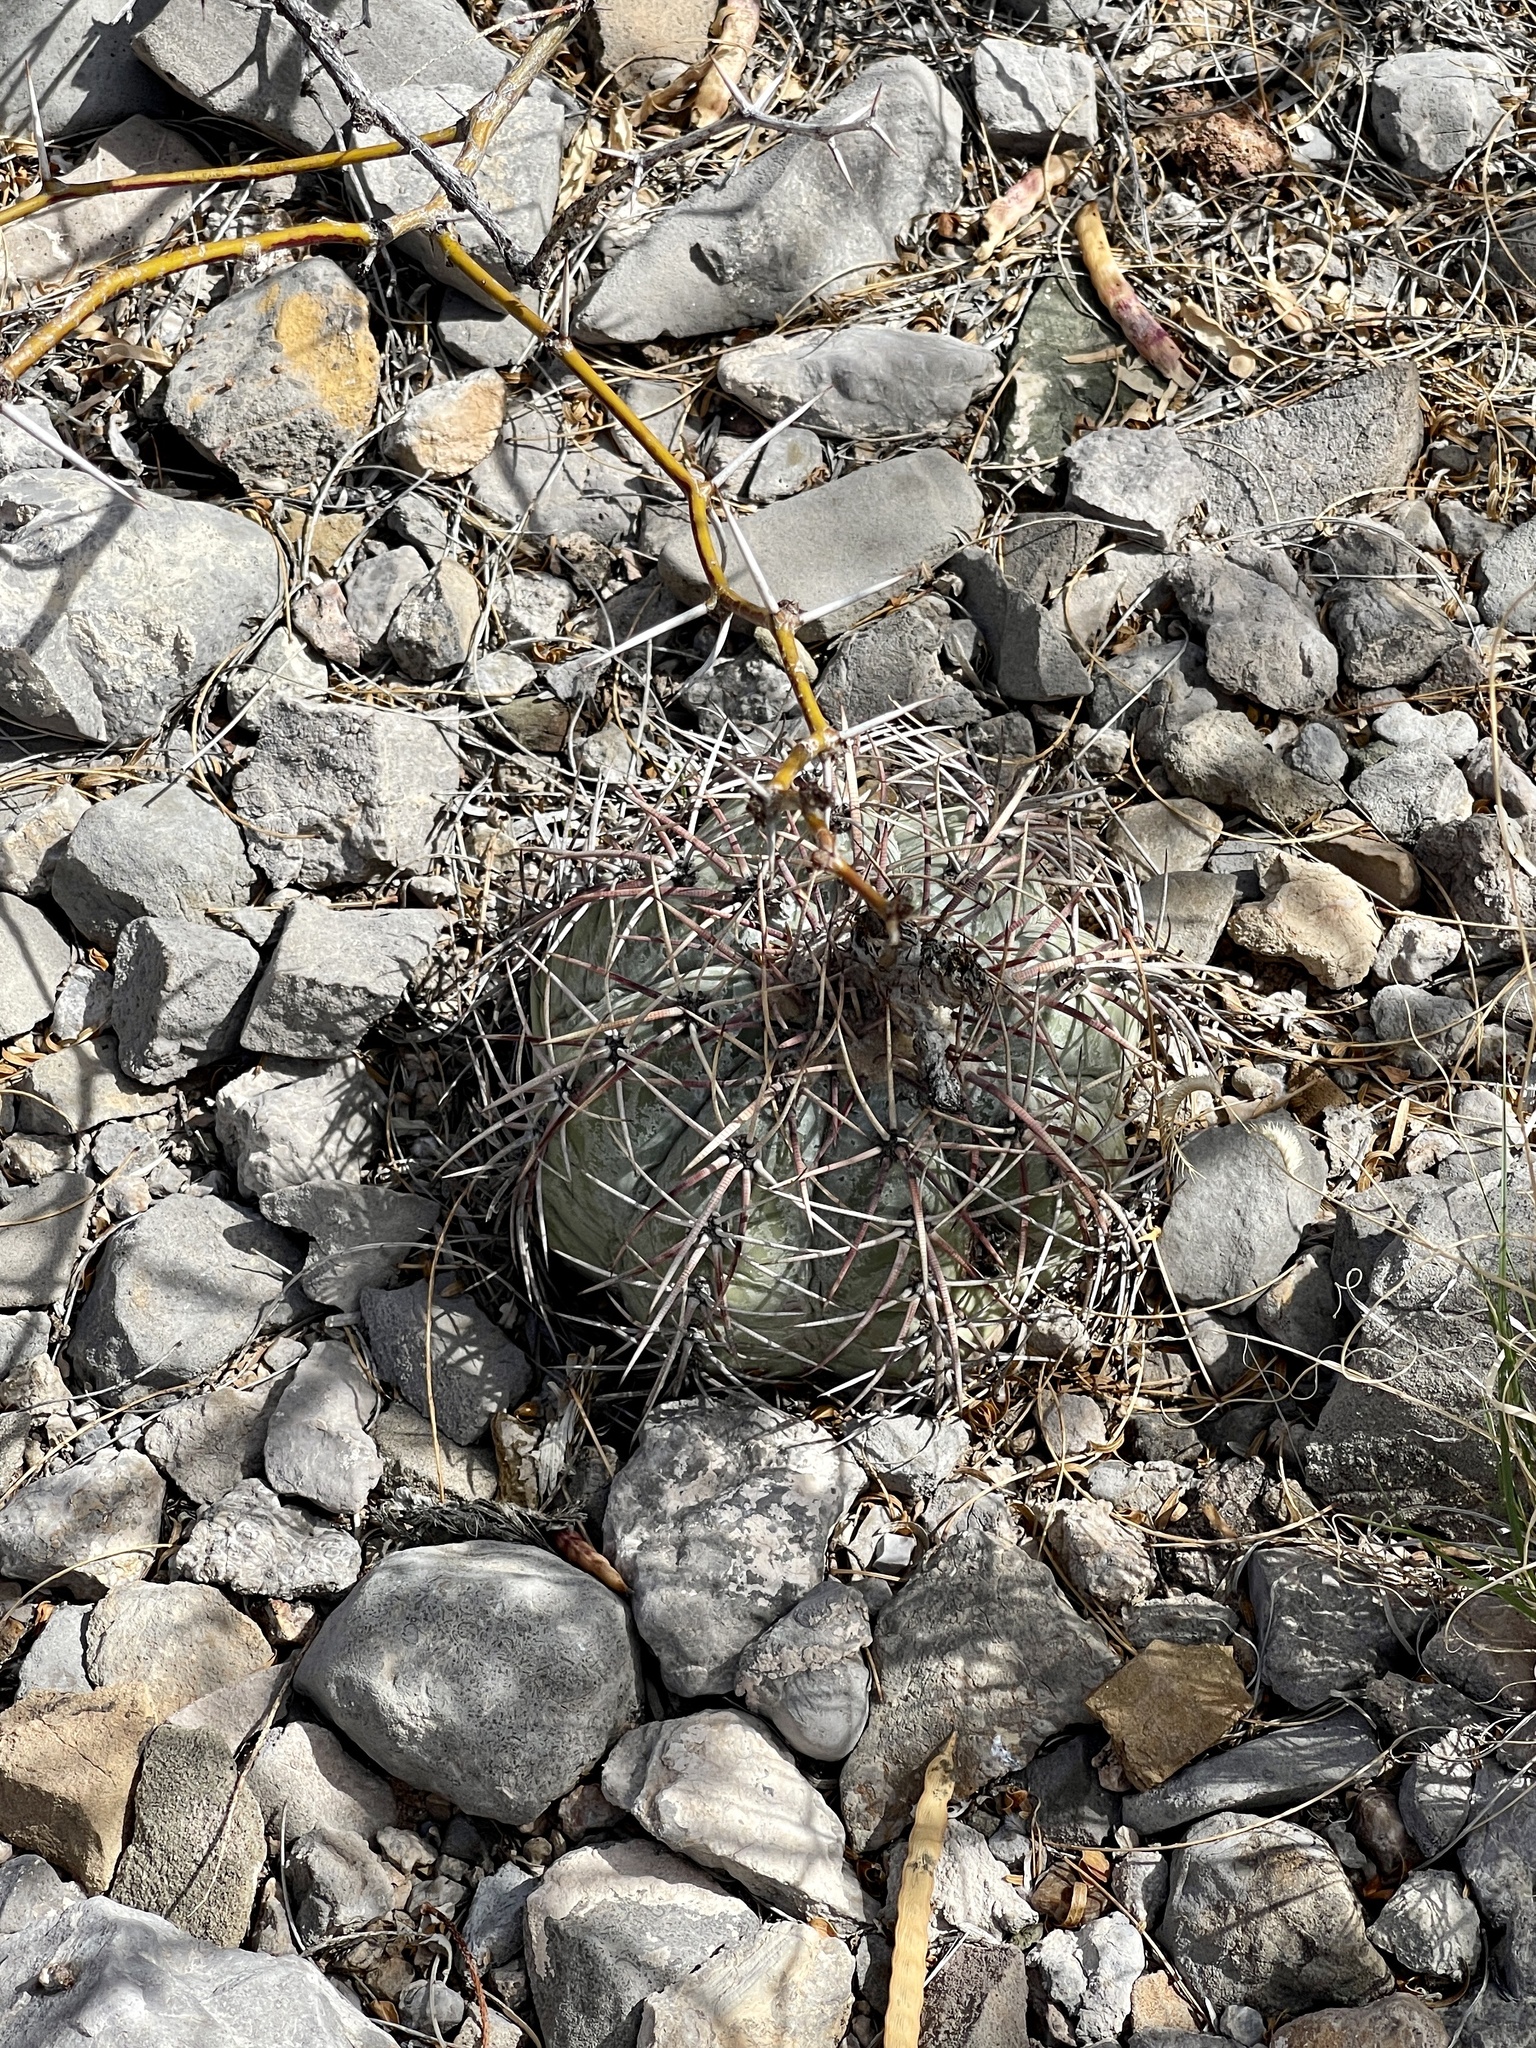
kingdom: Plantae
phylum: Tracheophyta
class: Magnoliopsida
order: Caryophyllales
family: Cactaceae
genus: Echinocactus
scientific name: Echinocactus horizonthalonius
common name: Devilshead
